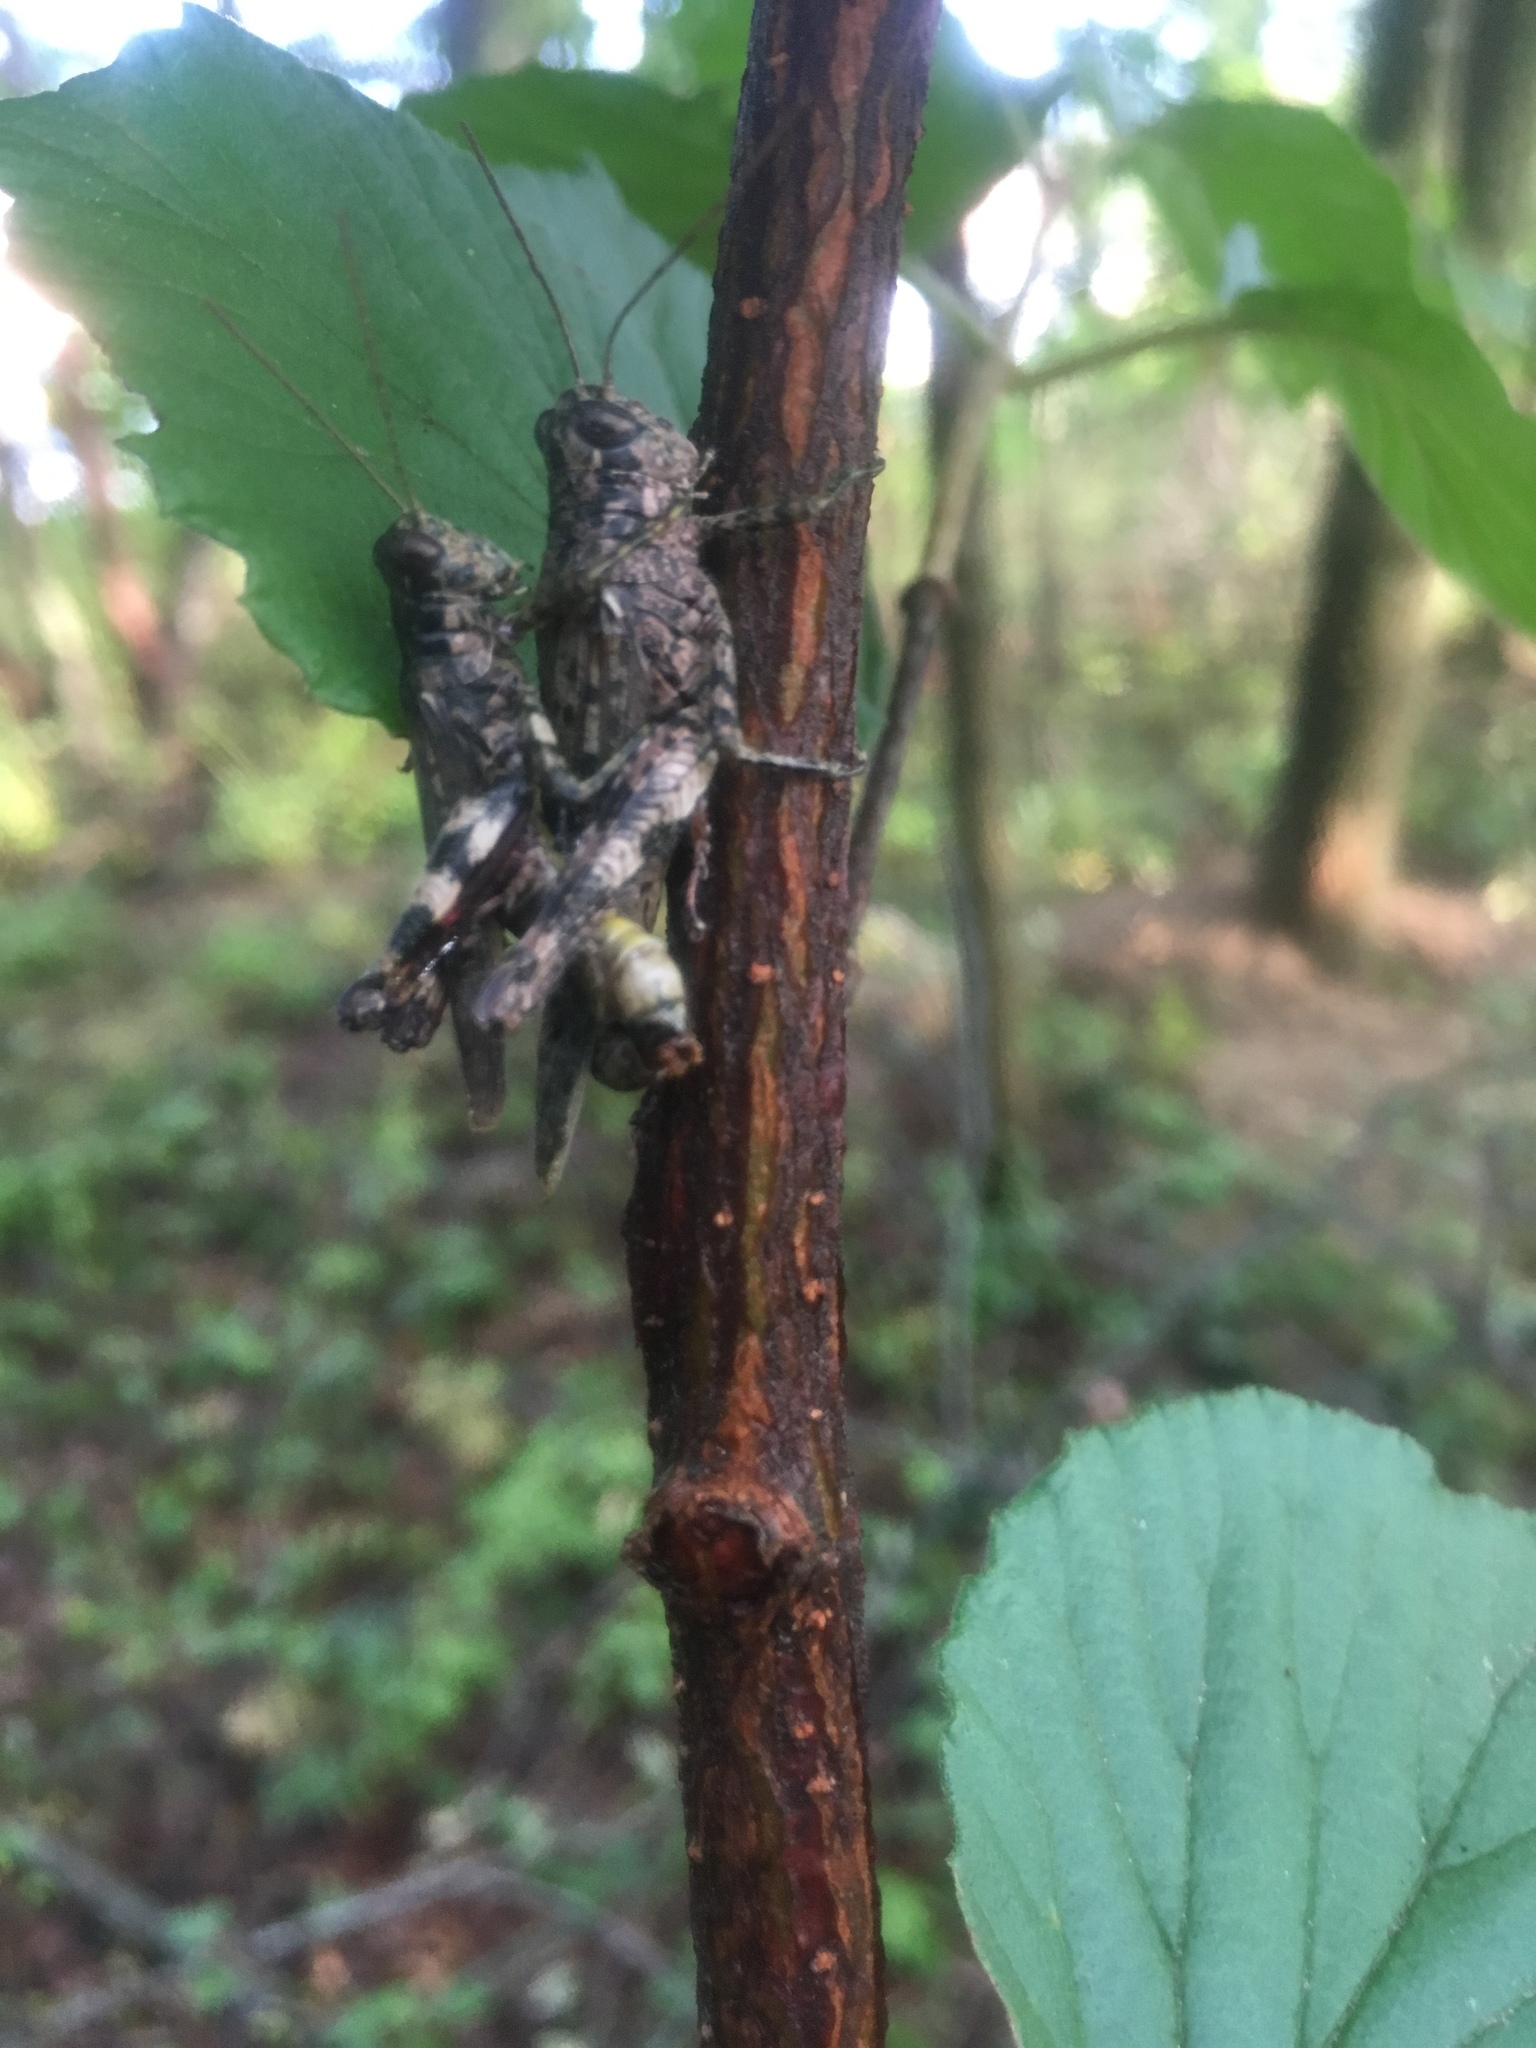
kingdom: Animalia
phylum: Arthropoda
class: Insecta
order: Orthoptera
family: Acrididae
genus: Melanoplus
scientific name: Melanoplus punctulatus
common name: Pine-tree spur-throat grasshopper
